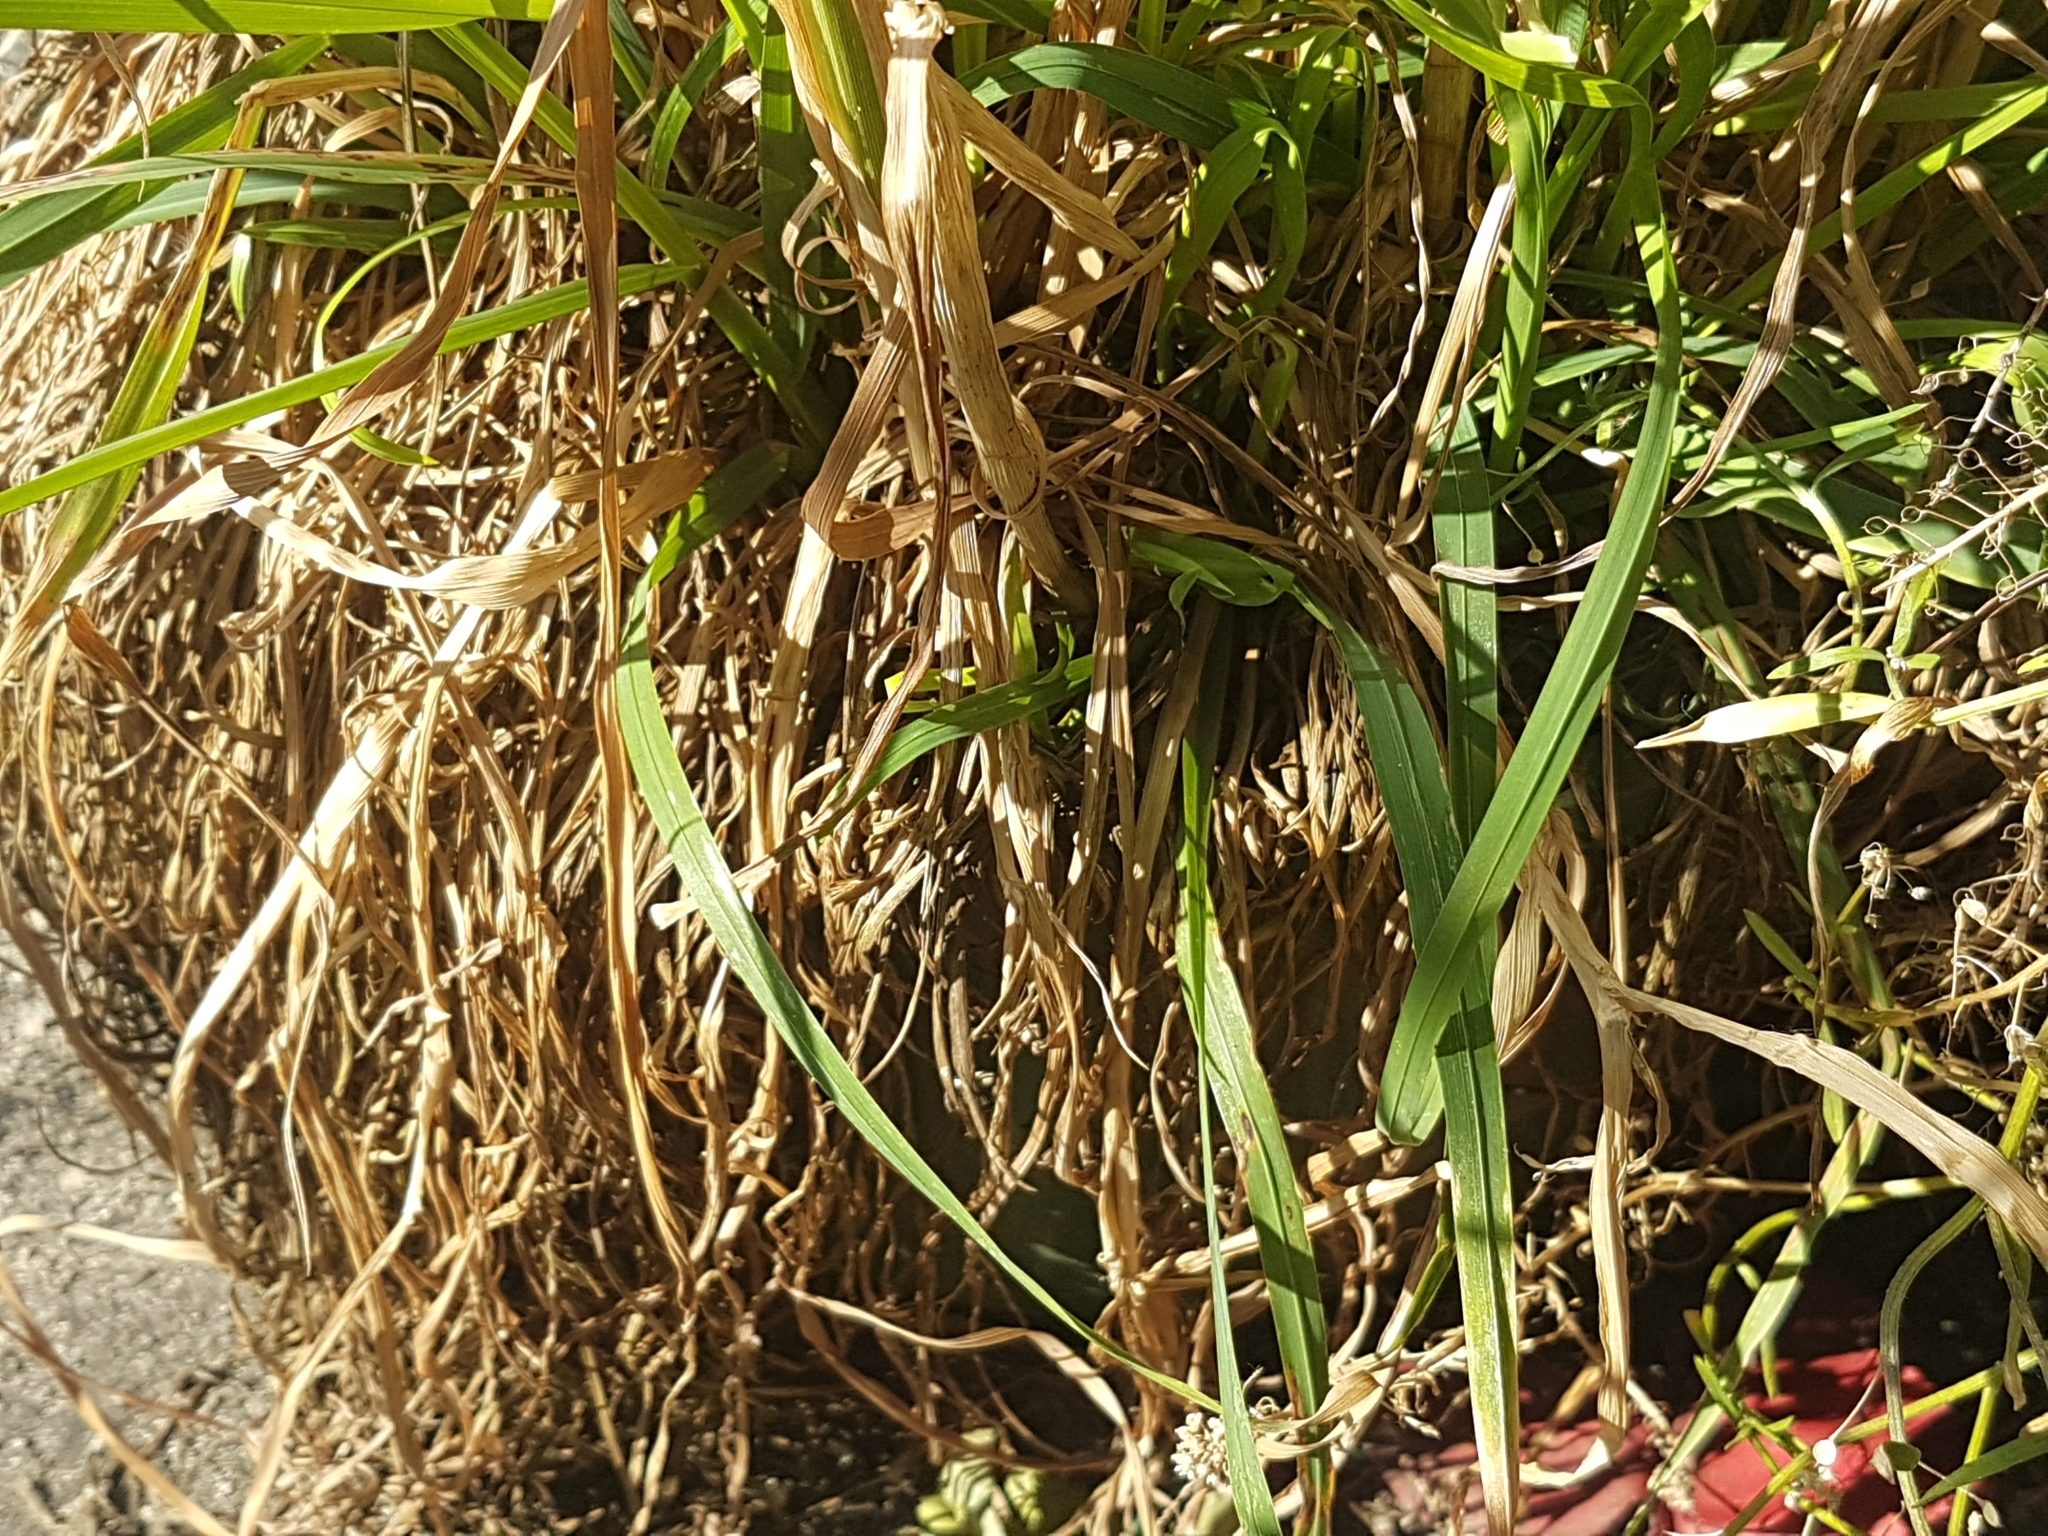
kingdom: Animalia
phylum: Arthropoda
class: Arachnida
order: Araneae
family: Salticidae
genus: Salticus
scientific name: Salticus scenicus
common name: Zebra jumper
